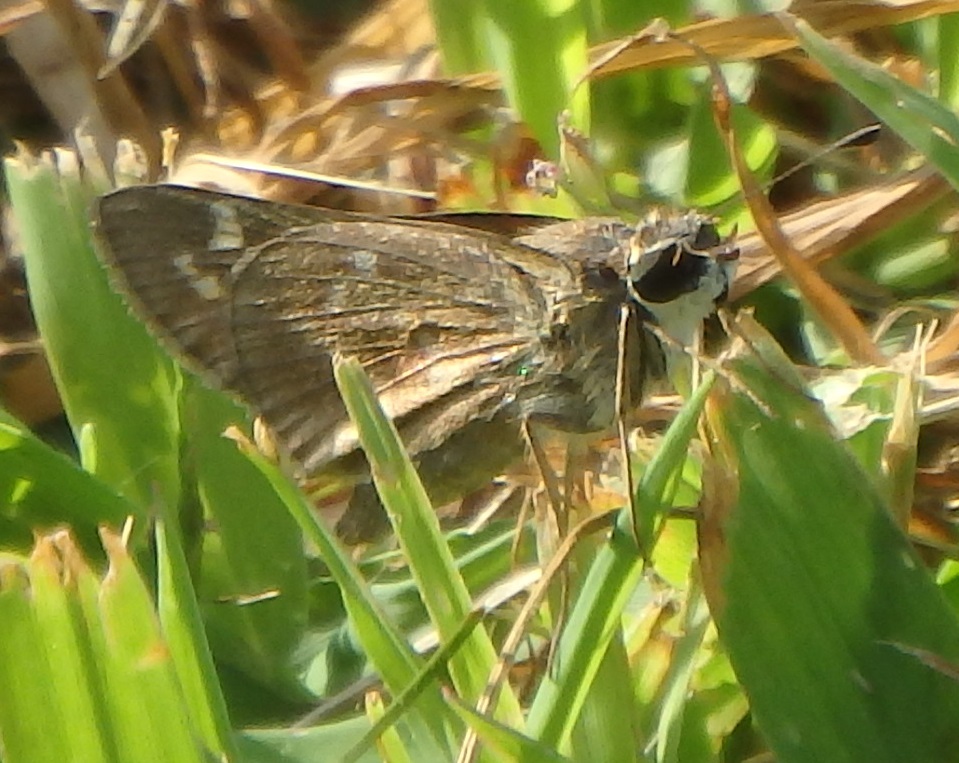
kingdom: Animalia
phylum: Arthropoda
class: Insecta
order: Lepidoptera
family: Hesperiidae
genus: Atalopedes
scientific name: Atalopedes
